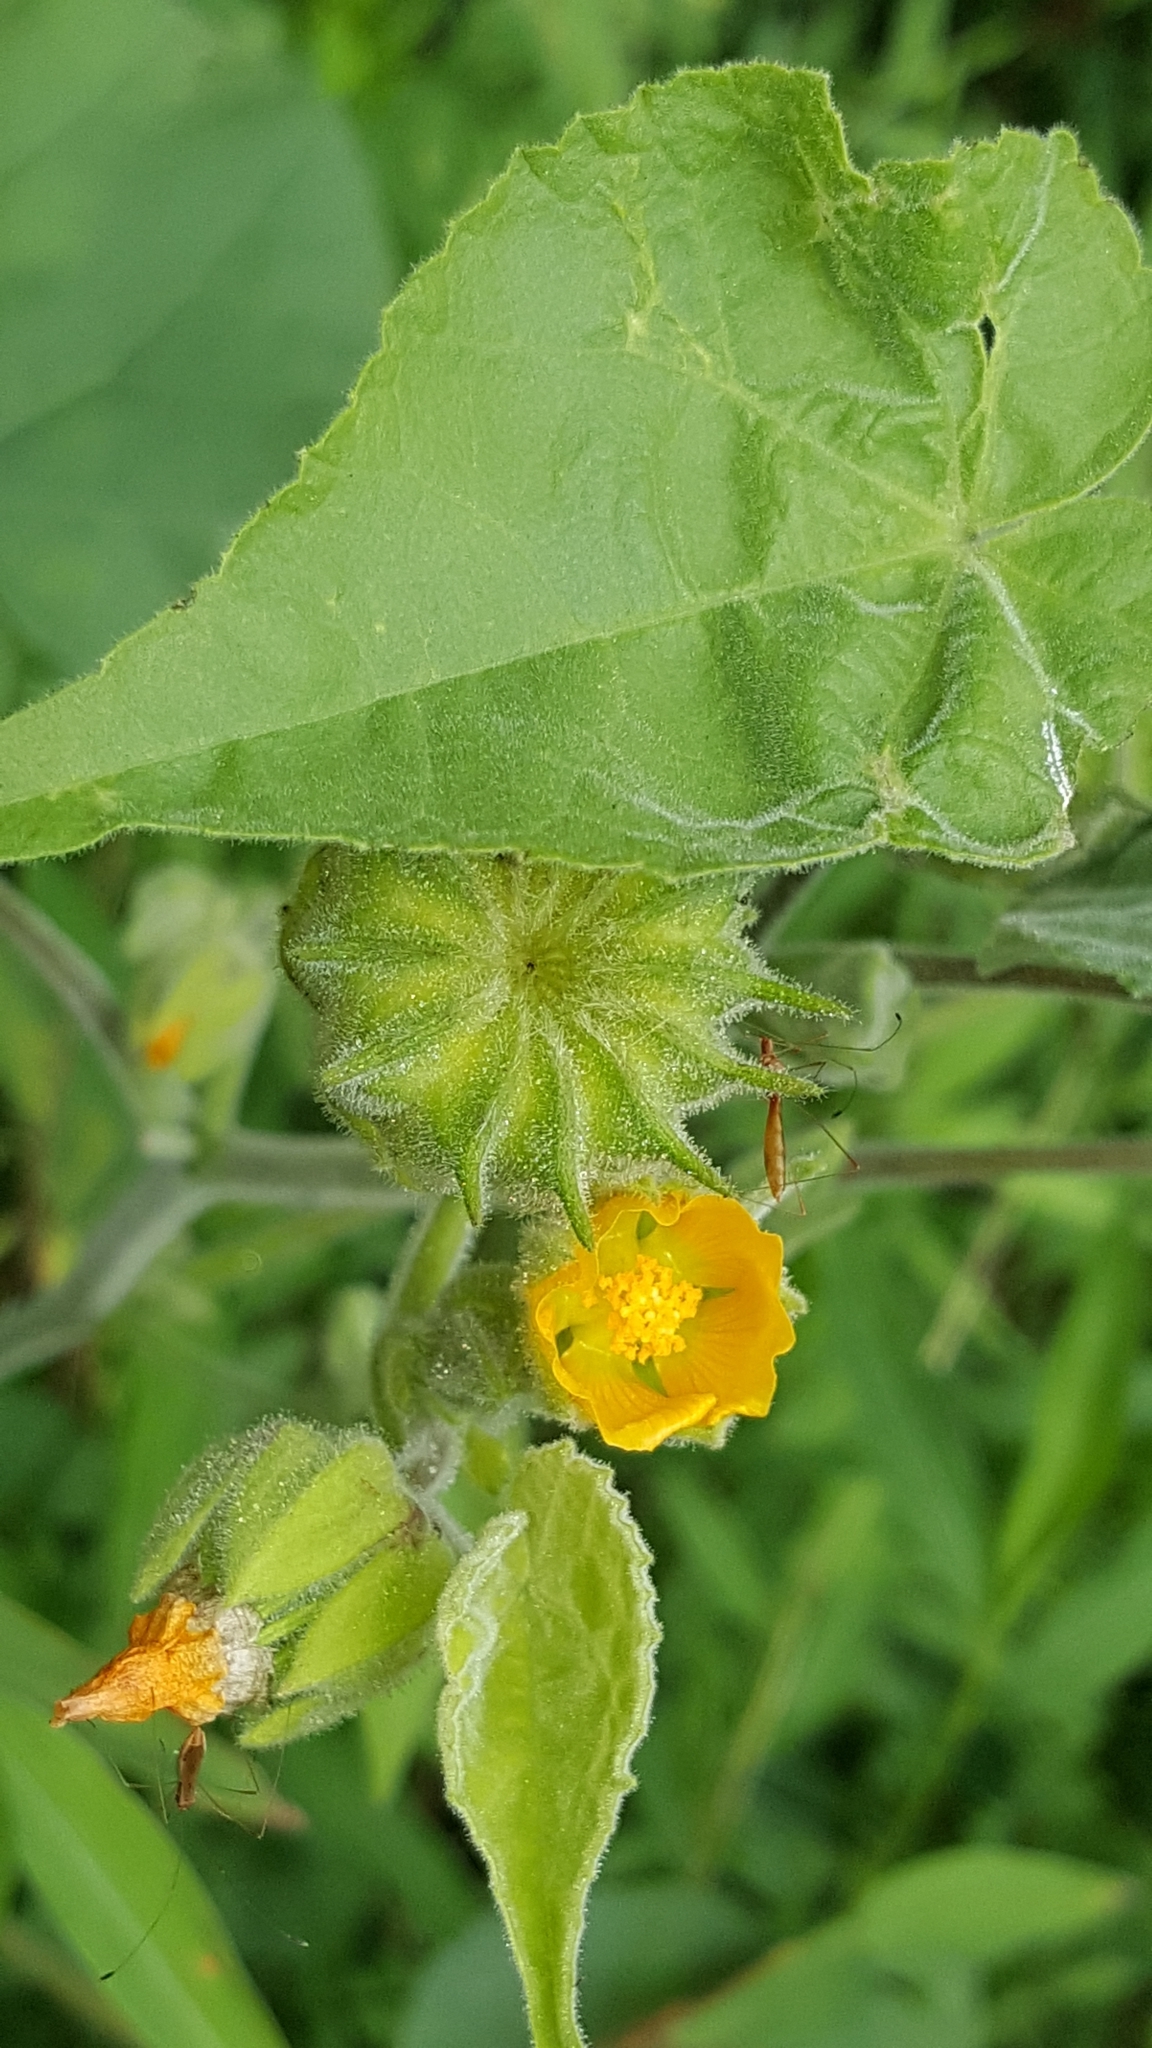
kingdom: Plantae
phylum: Tracheophyta
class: Magnoliopsida
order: Malvales
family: Malvaceae
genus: Abutilon
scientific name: Abutilon theophrasti
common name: Velvetleaf
